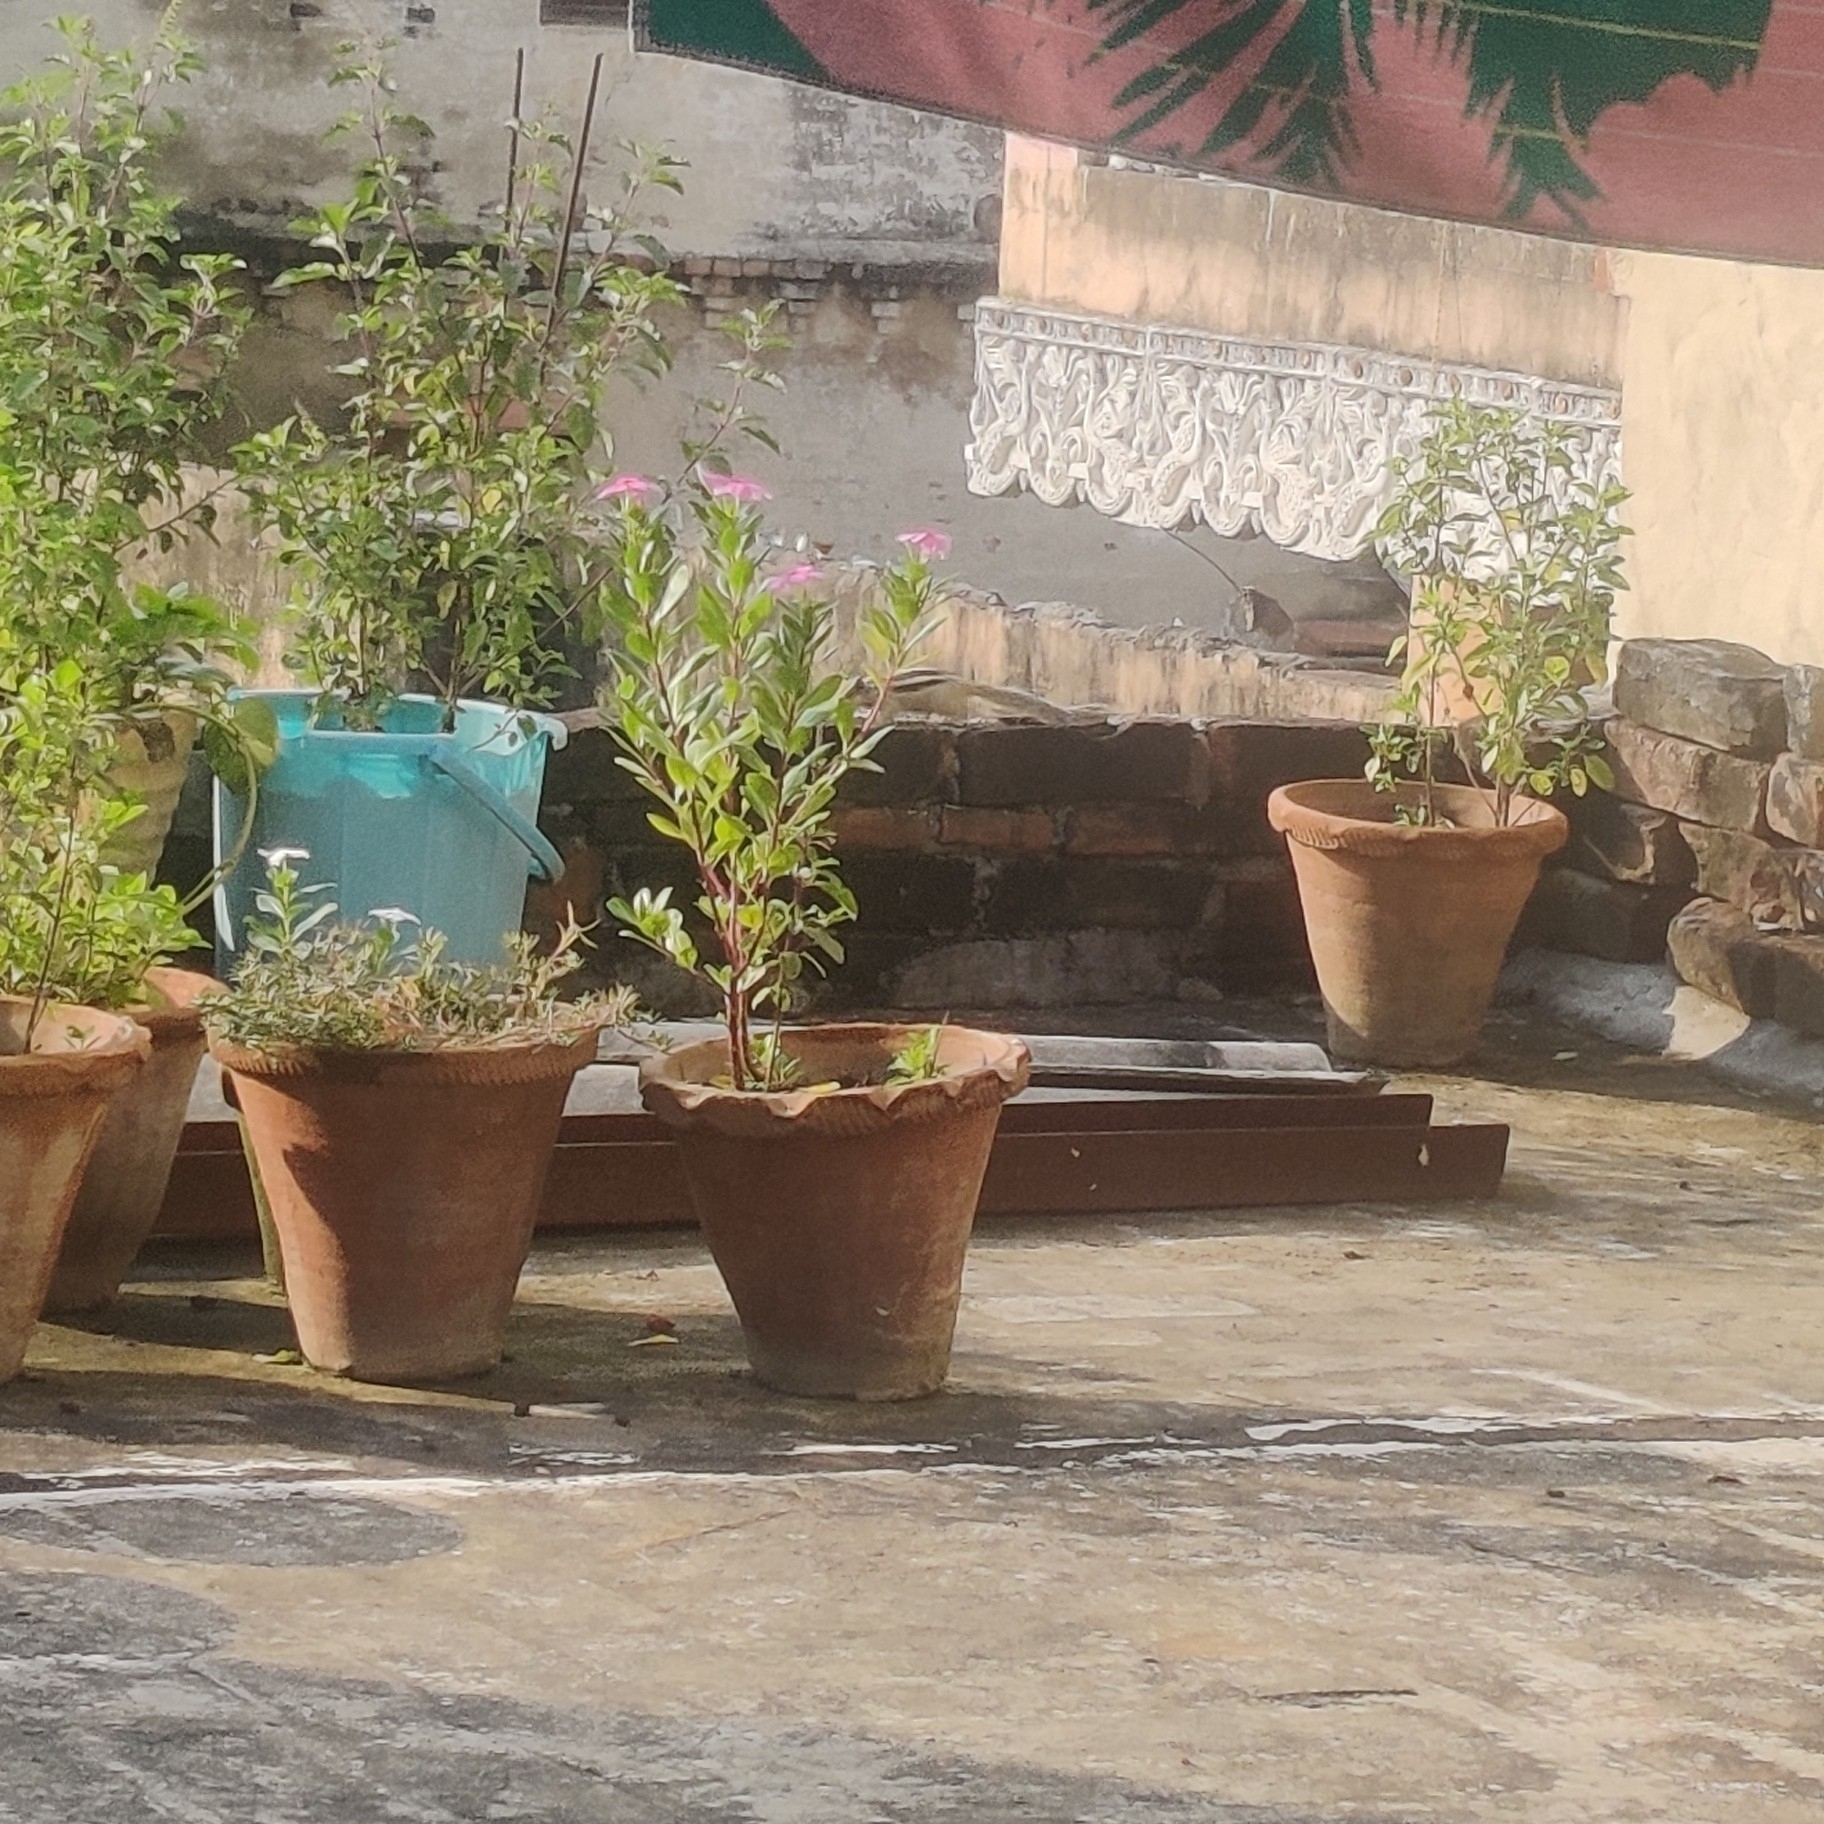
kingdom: Animalia
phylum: Chordata
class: Mammalia
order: Rodentia
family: Sciuridae
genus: Funambulus
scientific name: Funambulus pennantii
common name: Northern palm squirrel
